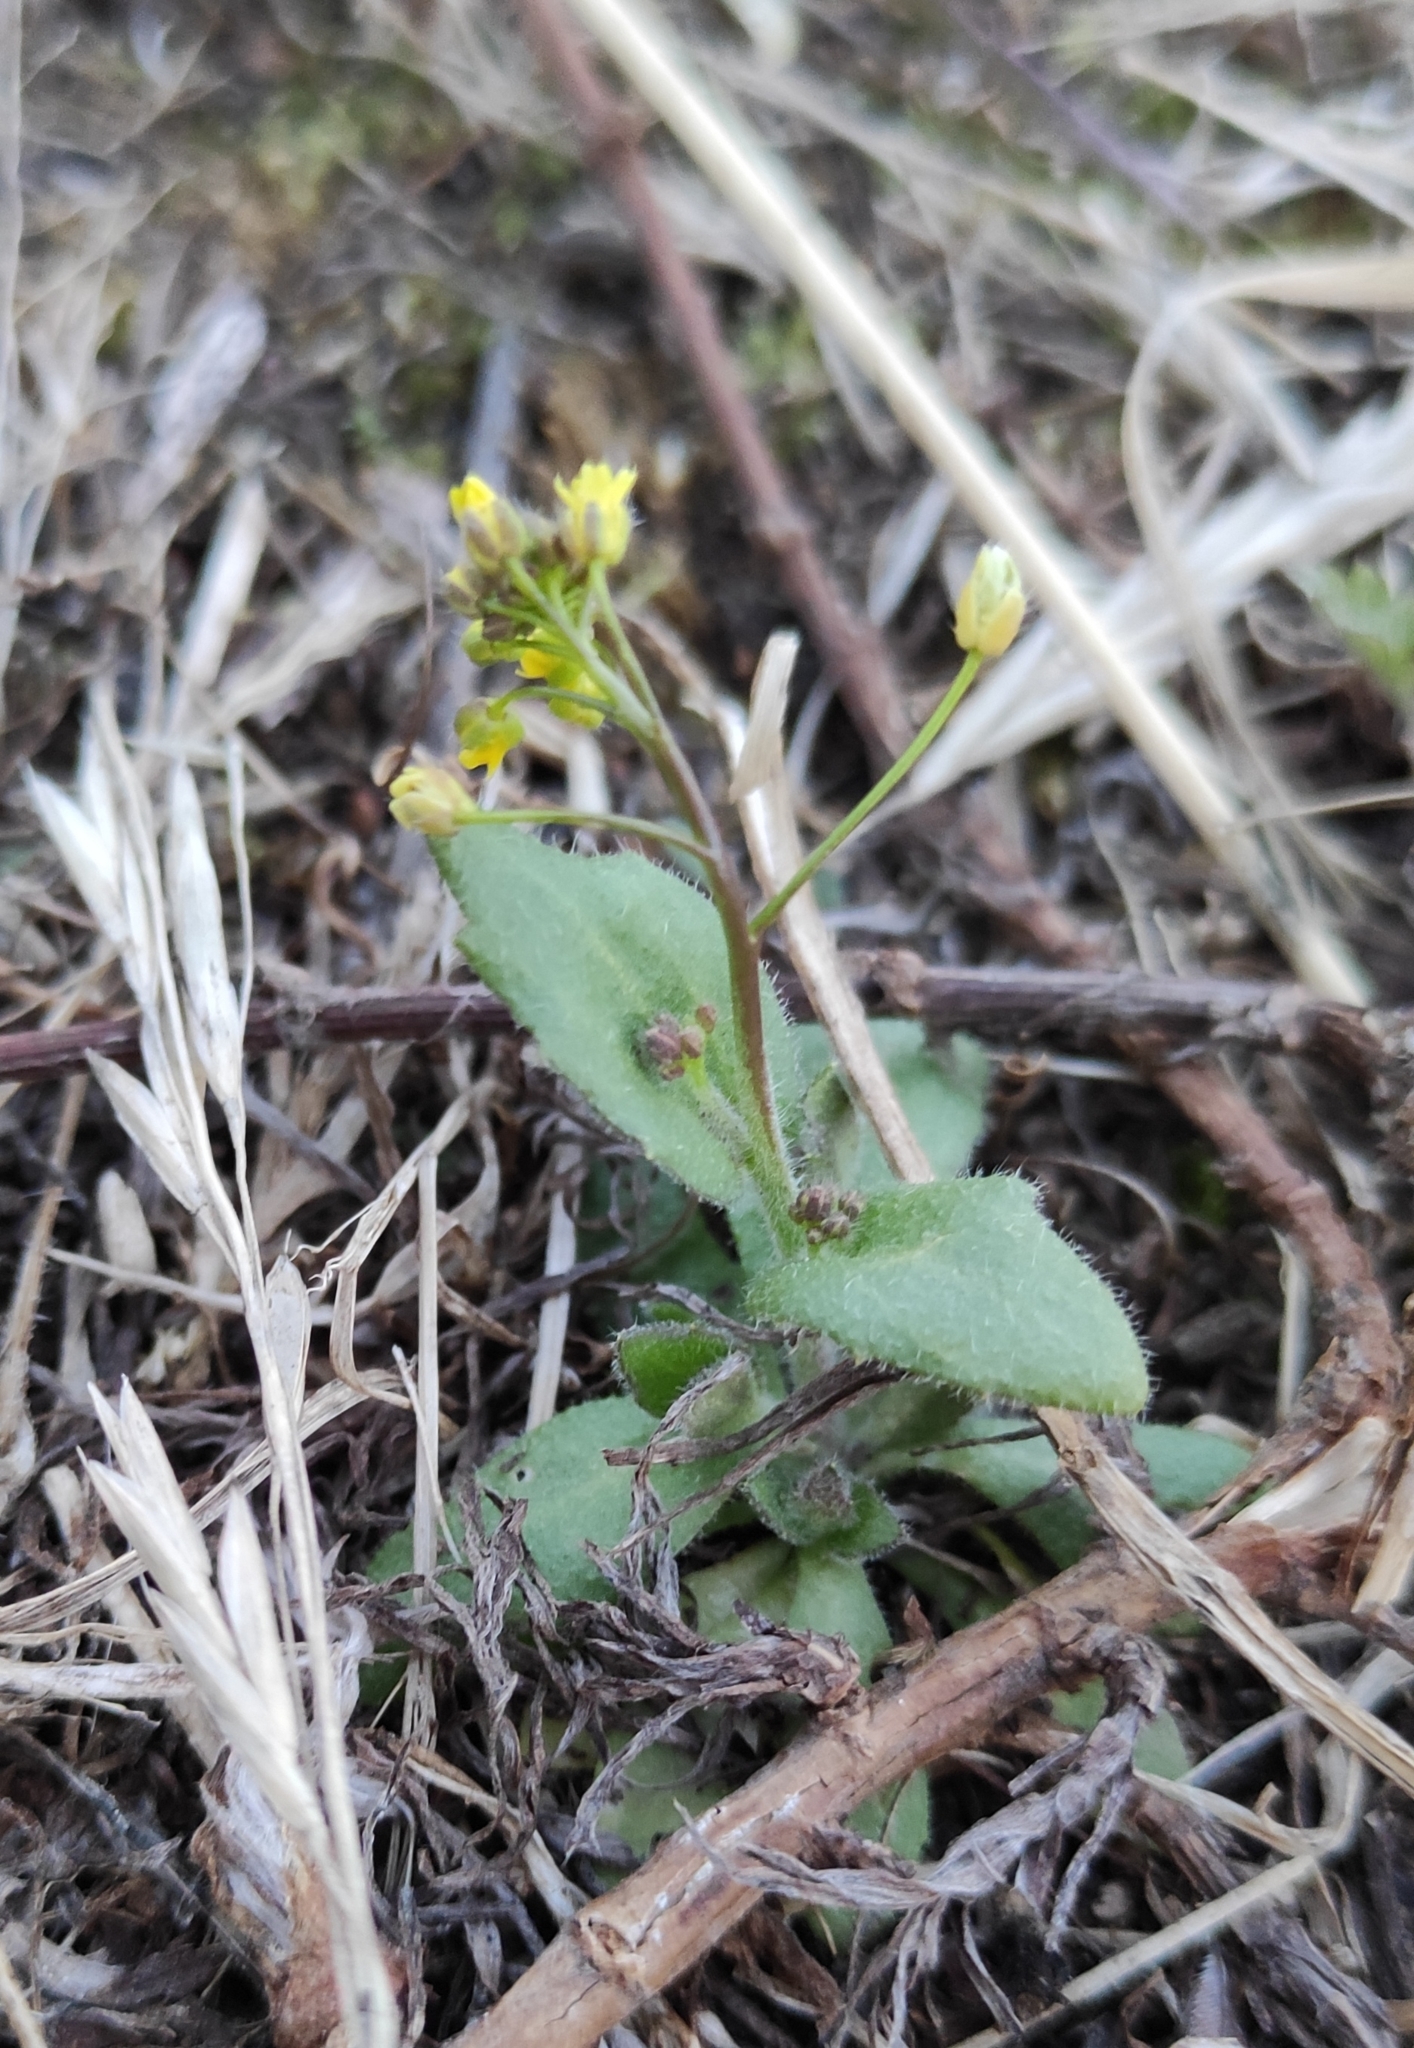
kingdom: Plantae
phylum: Tracheophyta
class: Magnoliopsida
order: Brassicales
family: Brassicaceae
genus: Draba
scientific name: Draba nemorosa
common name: Wood whitlow-grass
